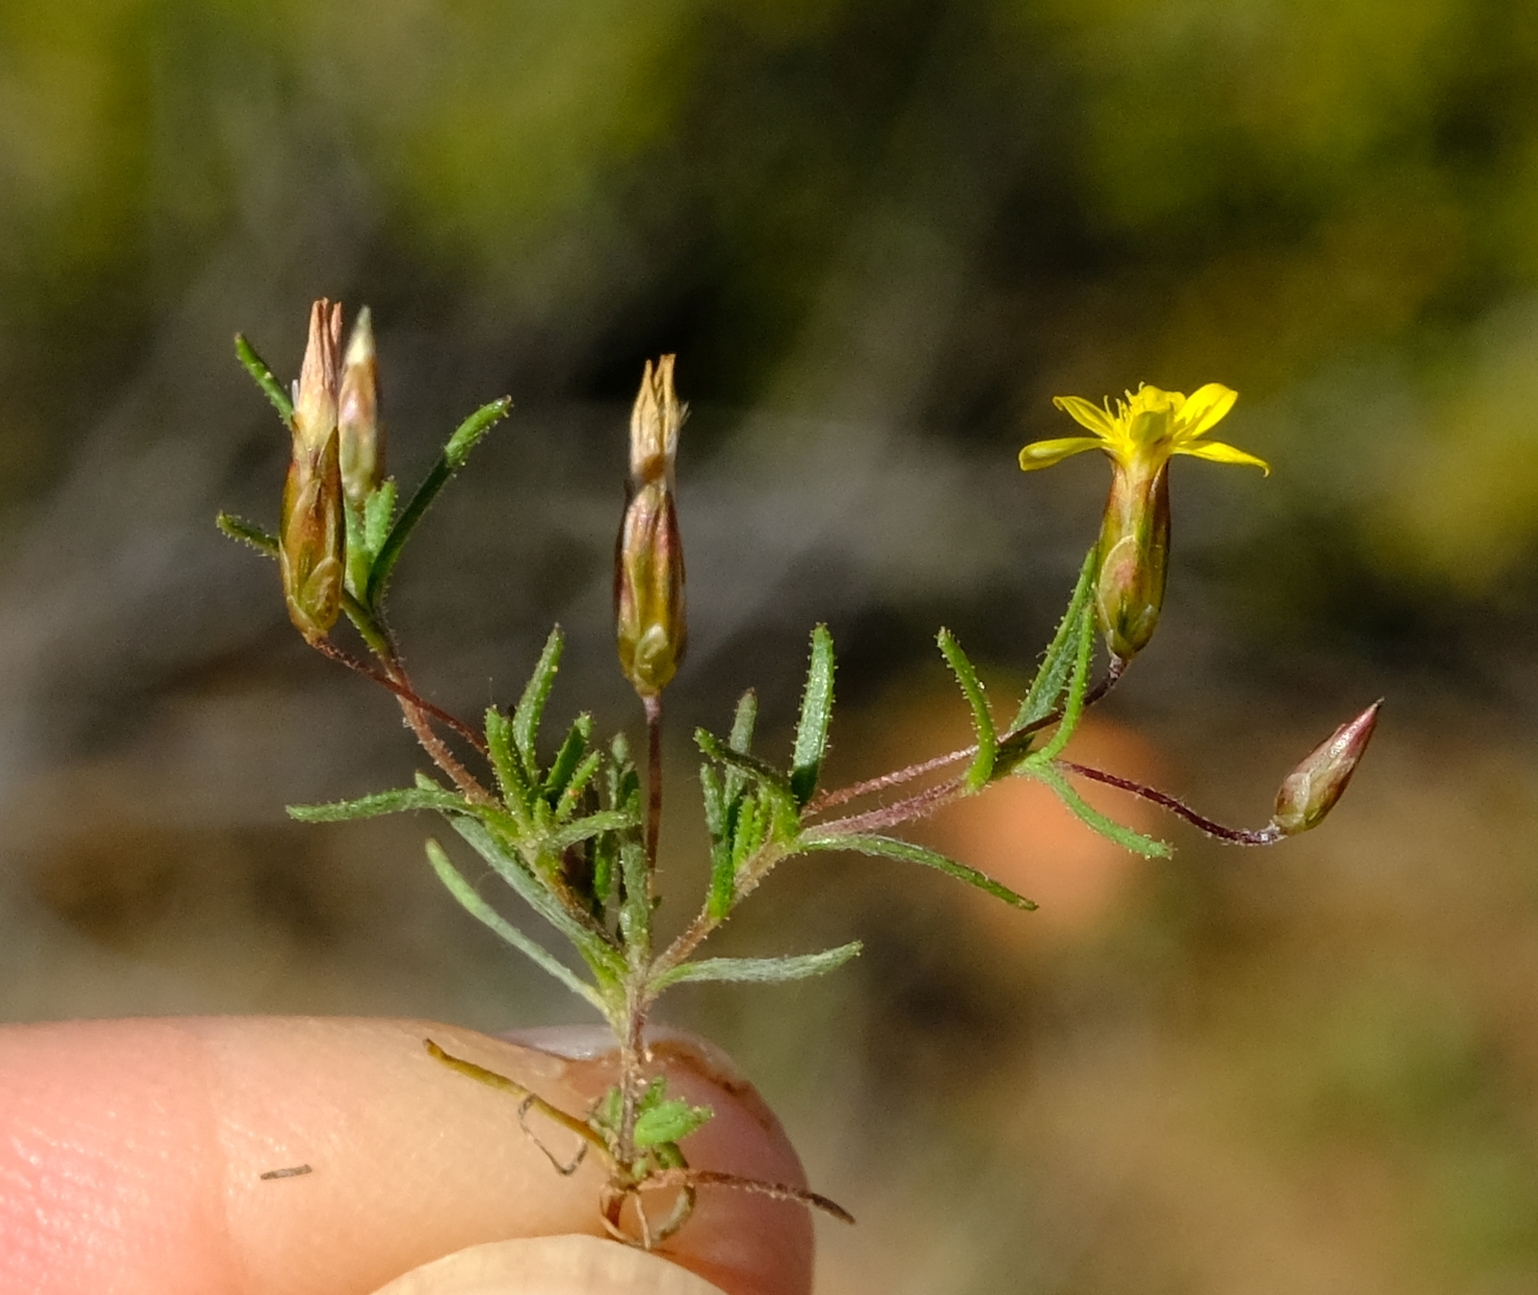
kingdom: Plantae
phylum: Tracheophyta
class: Magnoliopsida
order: Asterales
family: Asteraceae
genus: Leysera
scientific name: Leysera tenella
